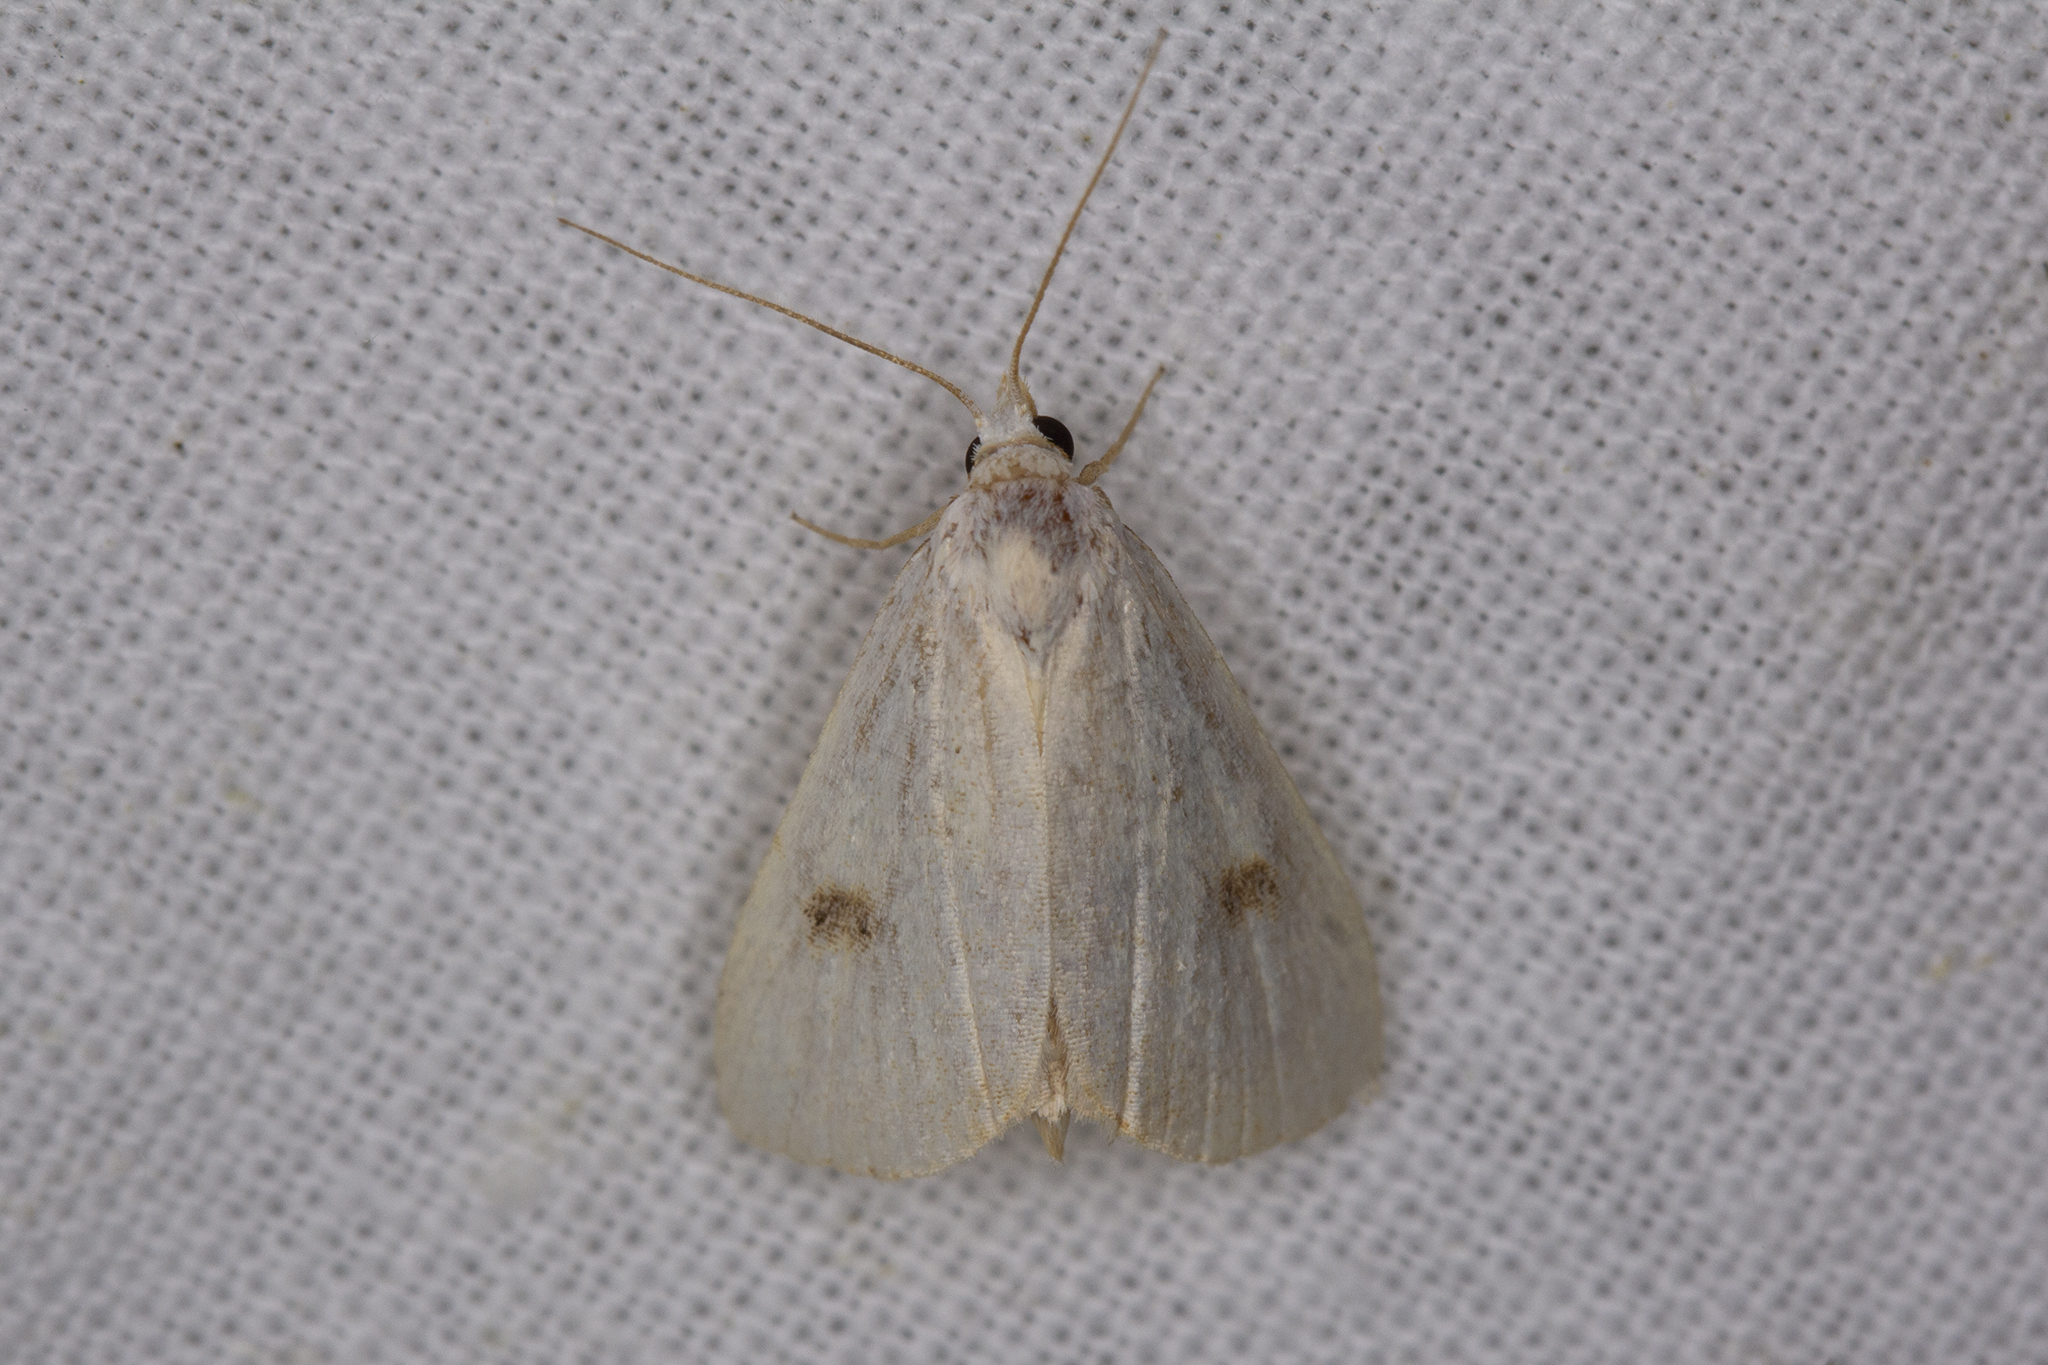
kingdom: Animalia
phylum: Arthropoda
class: Insecta
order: Lepidoptera
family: Erebidae
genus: Rivula
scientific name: Rivula sericealis
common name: Straw dot
